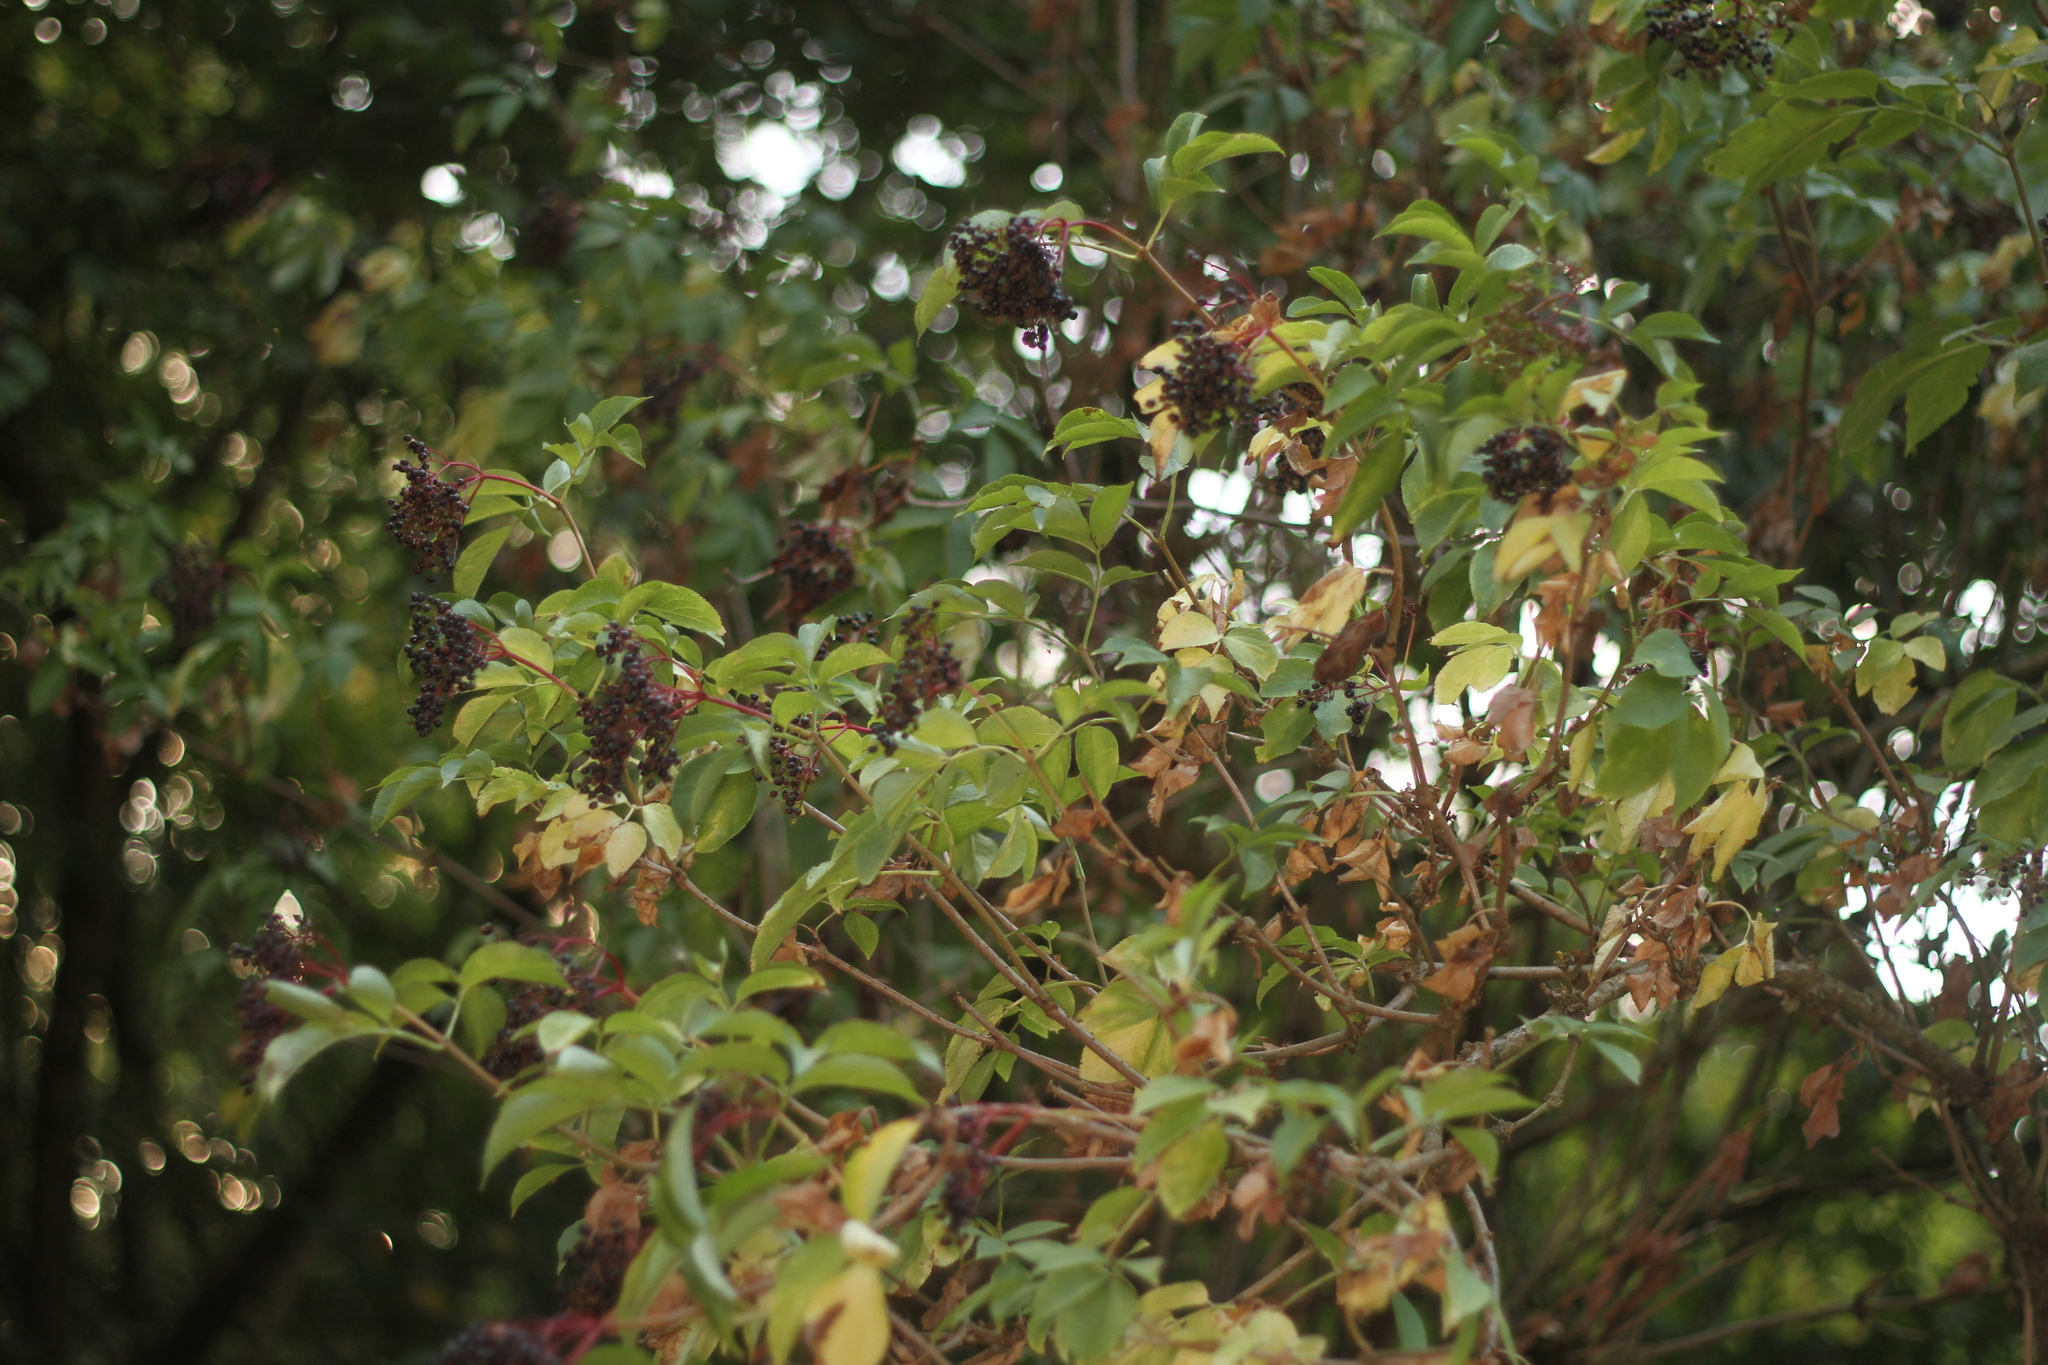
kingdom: Plantae
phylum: Tracheophyta
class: Magnoliopsida
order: Dipsacales
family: Viburnaceae
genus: Sambucus
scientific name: Sambucus nigra
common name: Elder
